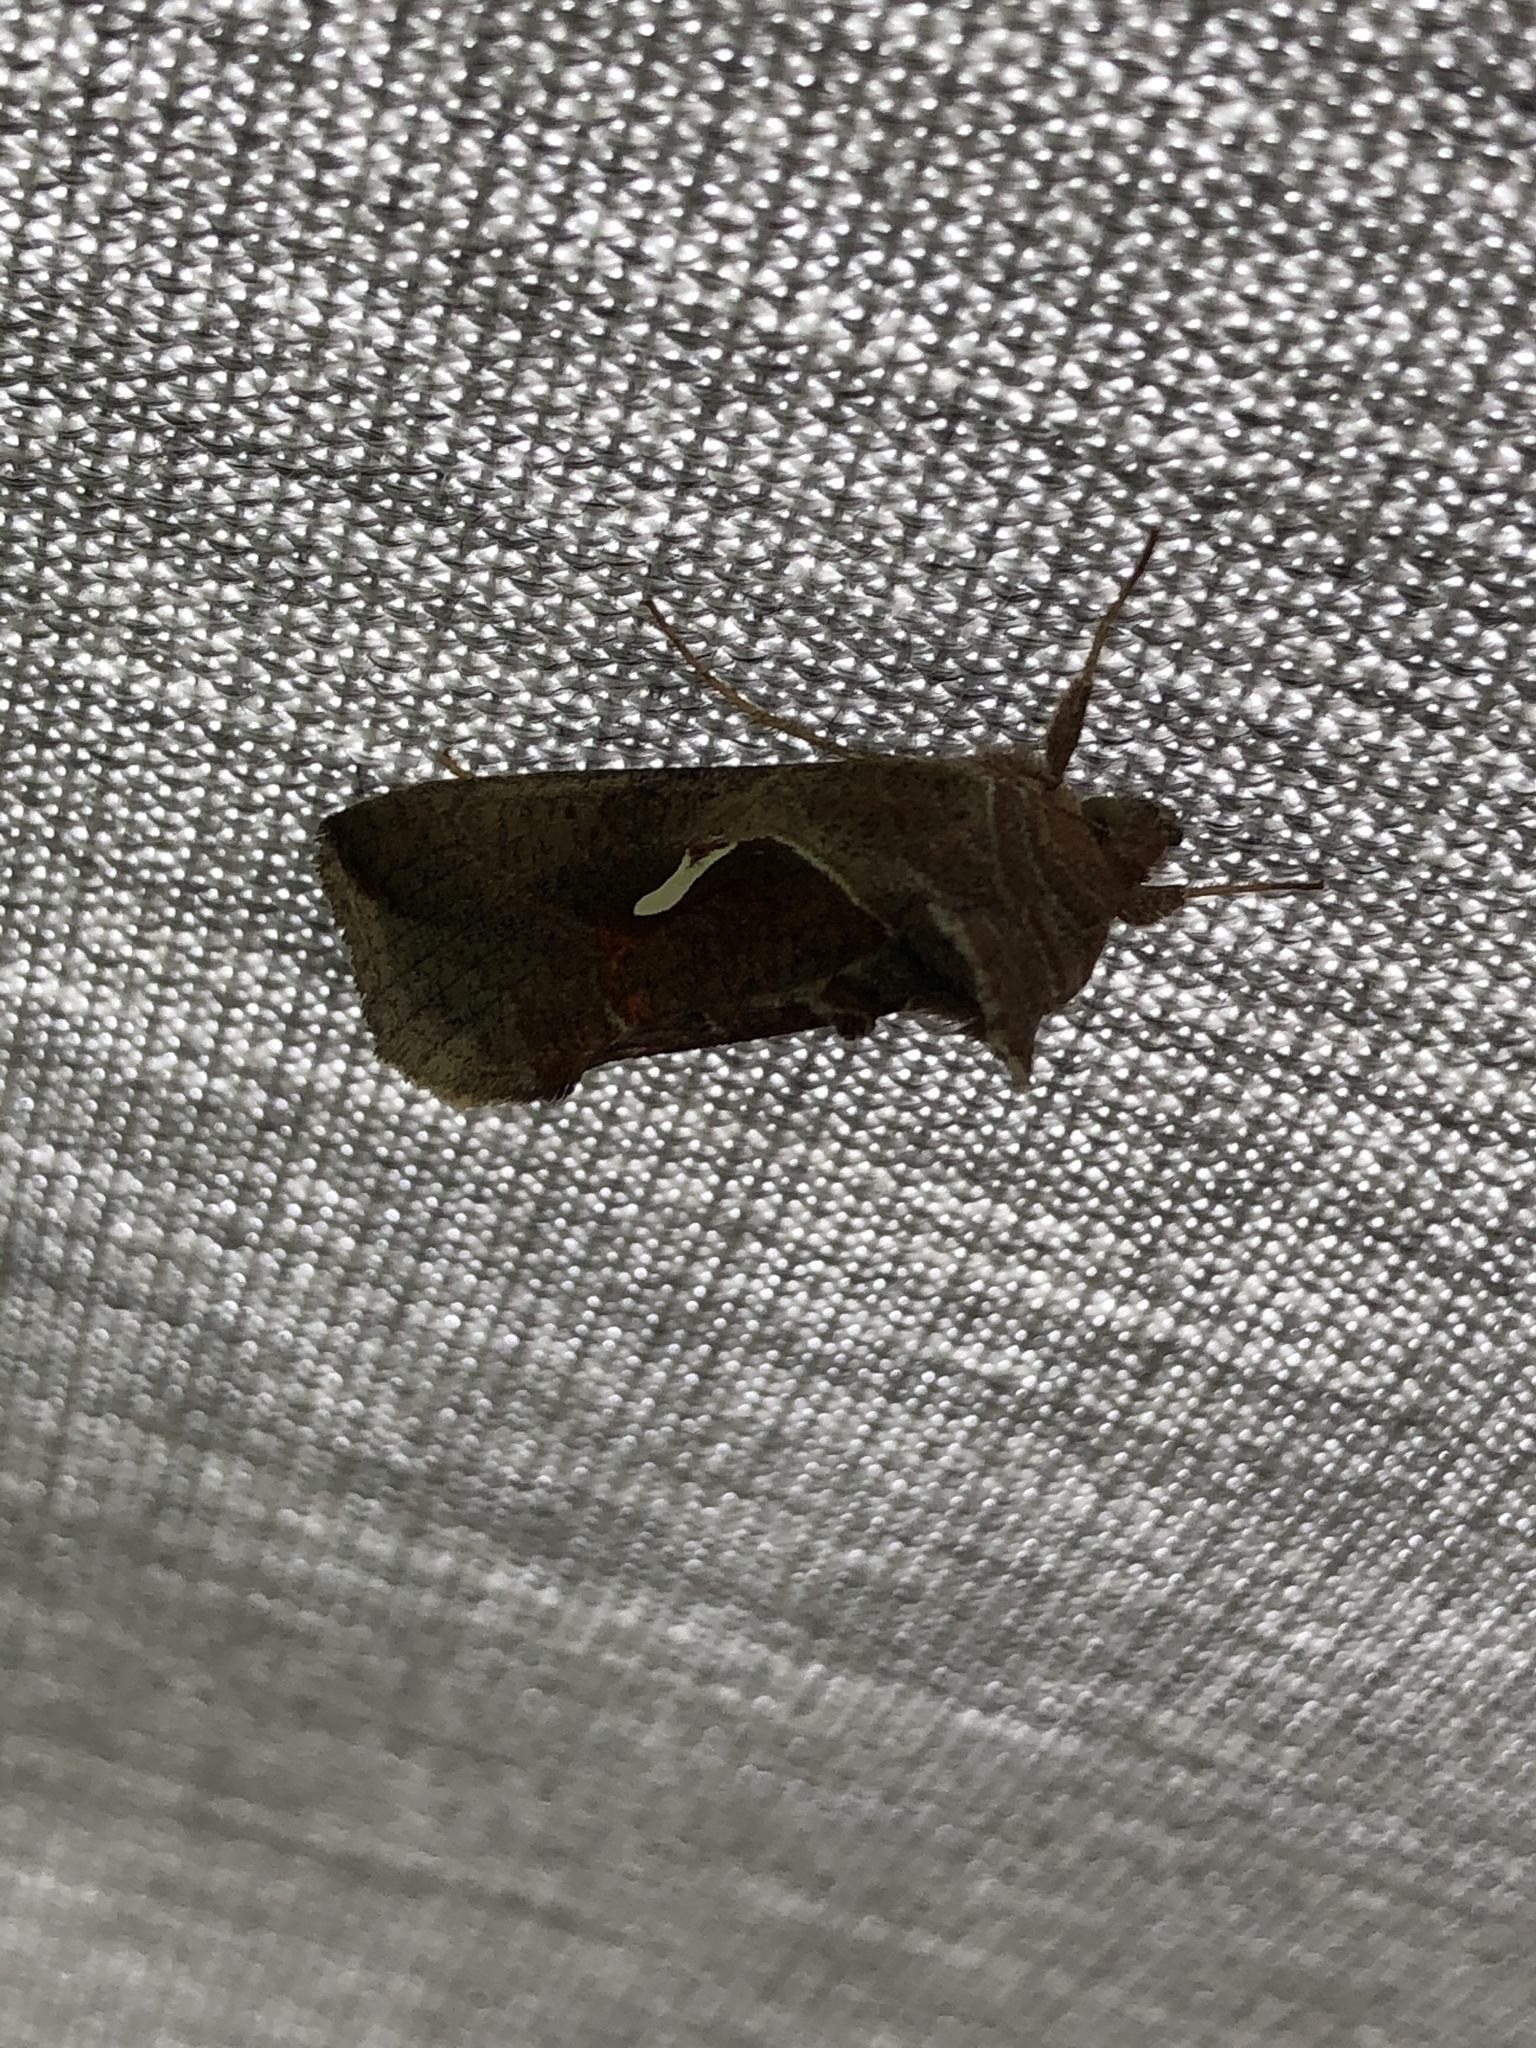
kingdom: Animalia
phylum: Arthropoda
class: Insecta
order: Lepidoptera
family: Noctuidae
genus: Anagrapha
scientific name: Anagrapha falcifera
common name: Celery looper
